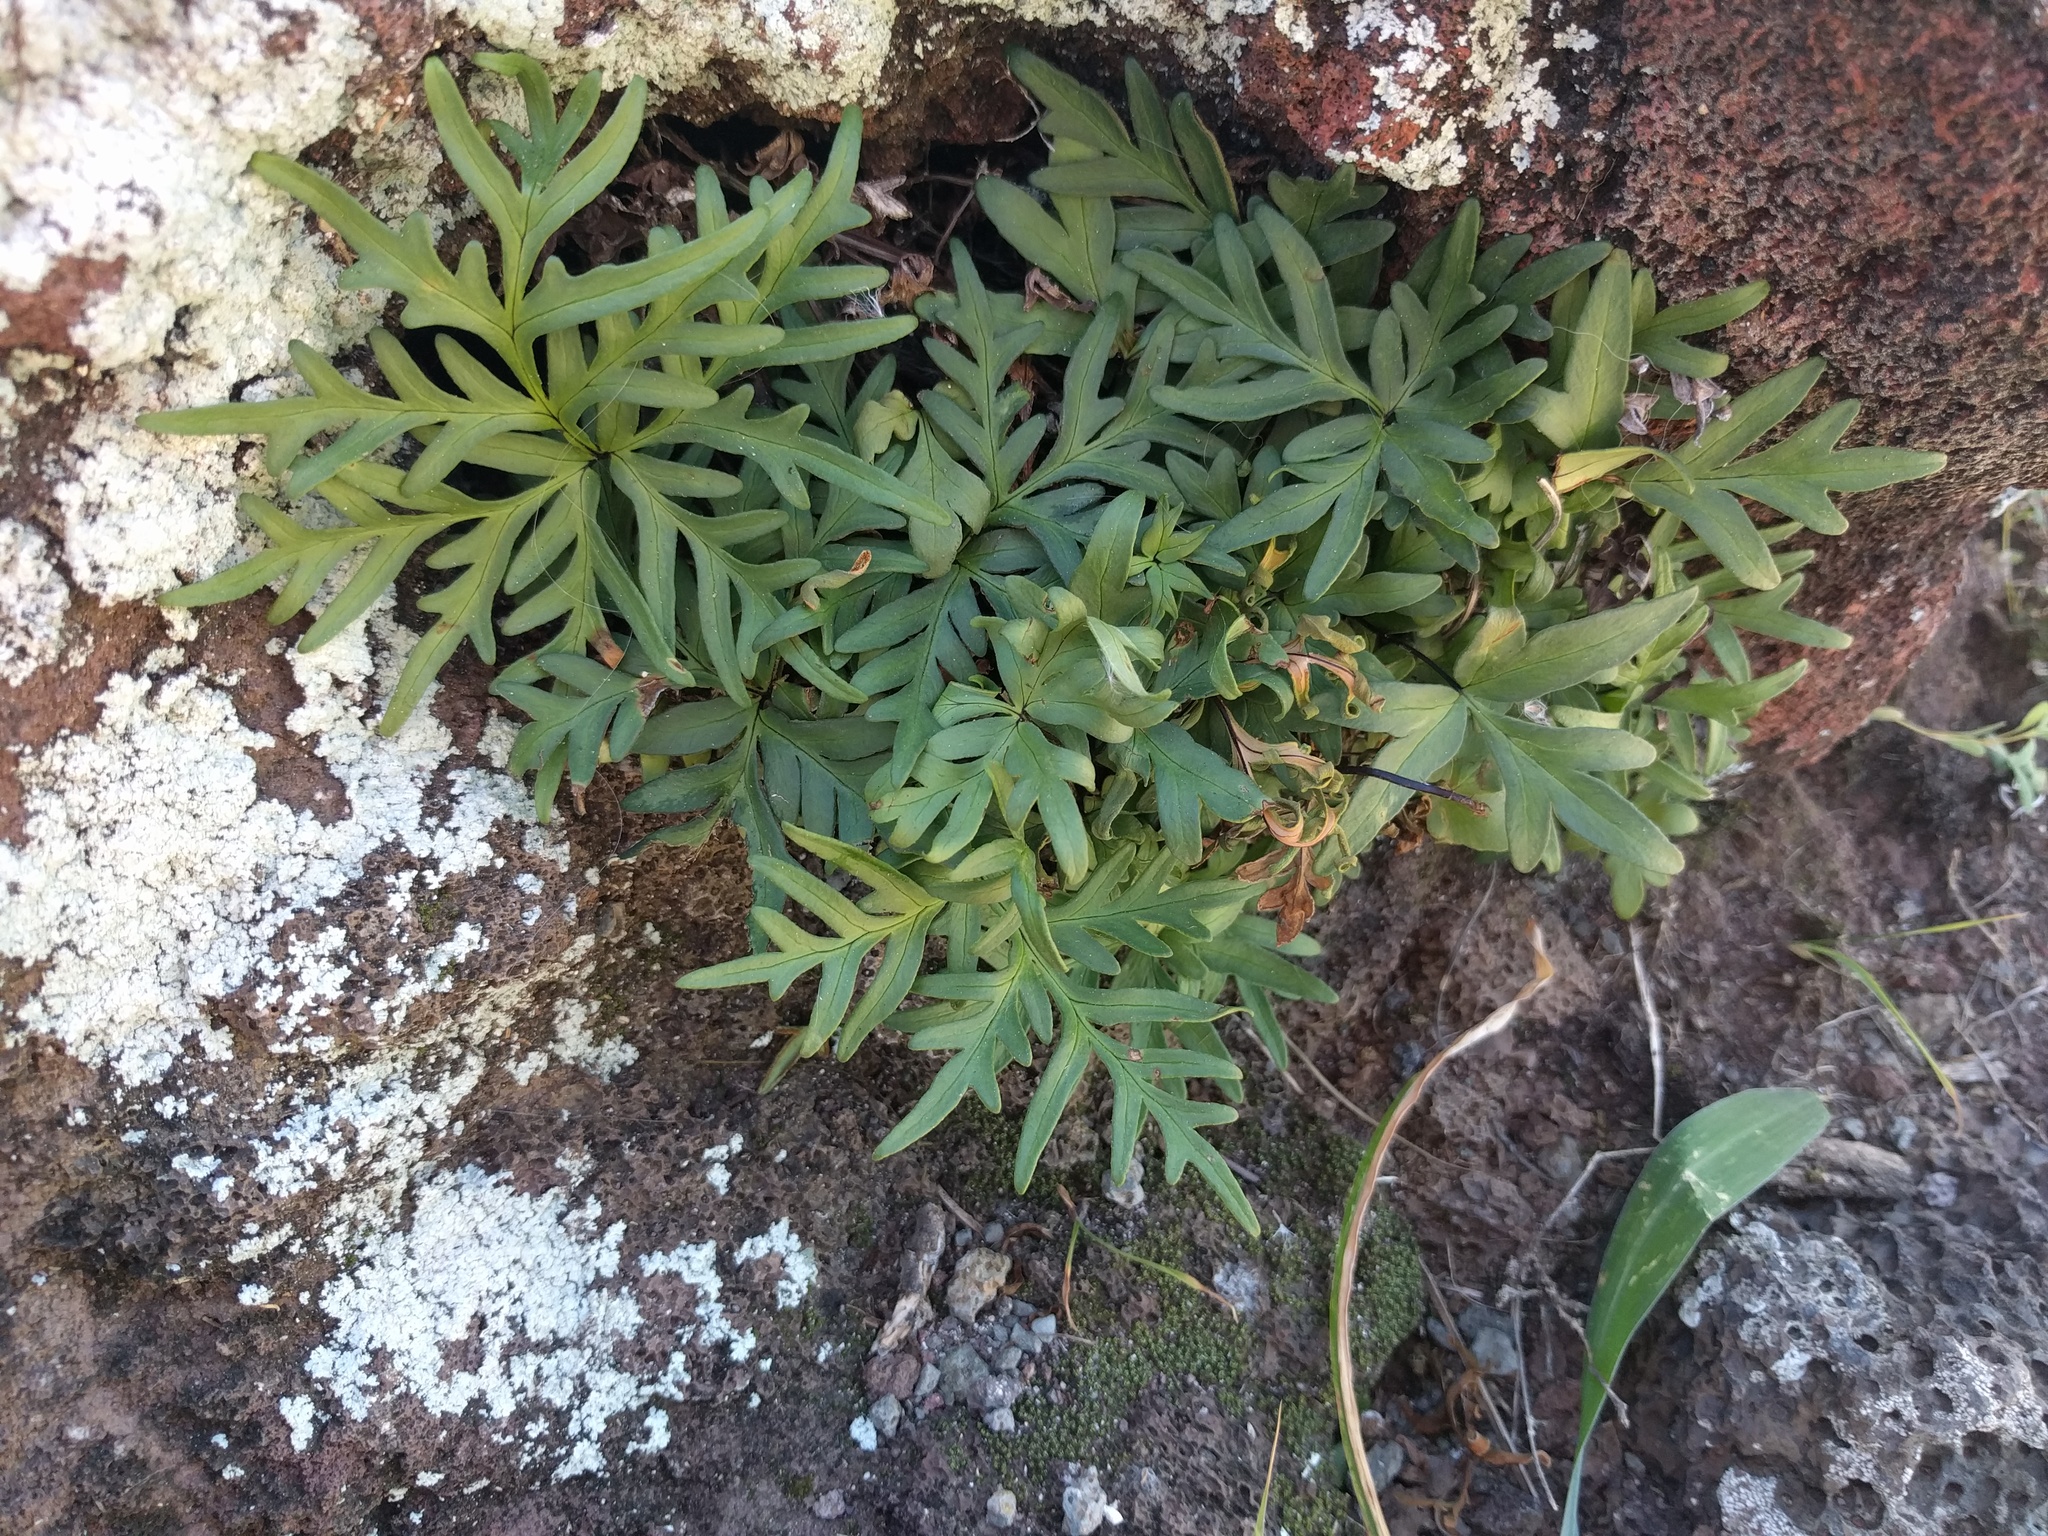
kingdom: Plantae
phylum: Tracheophyta
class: Polypodiopsida
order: Polypodiales
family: Pteridaceae
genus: Doryopteris
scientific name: Doryopteris decipiens
